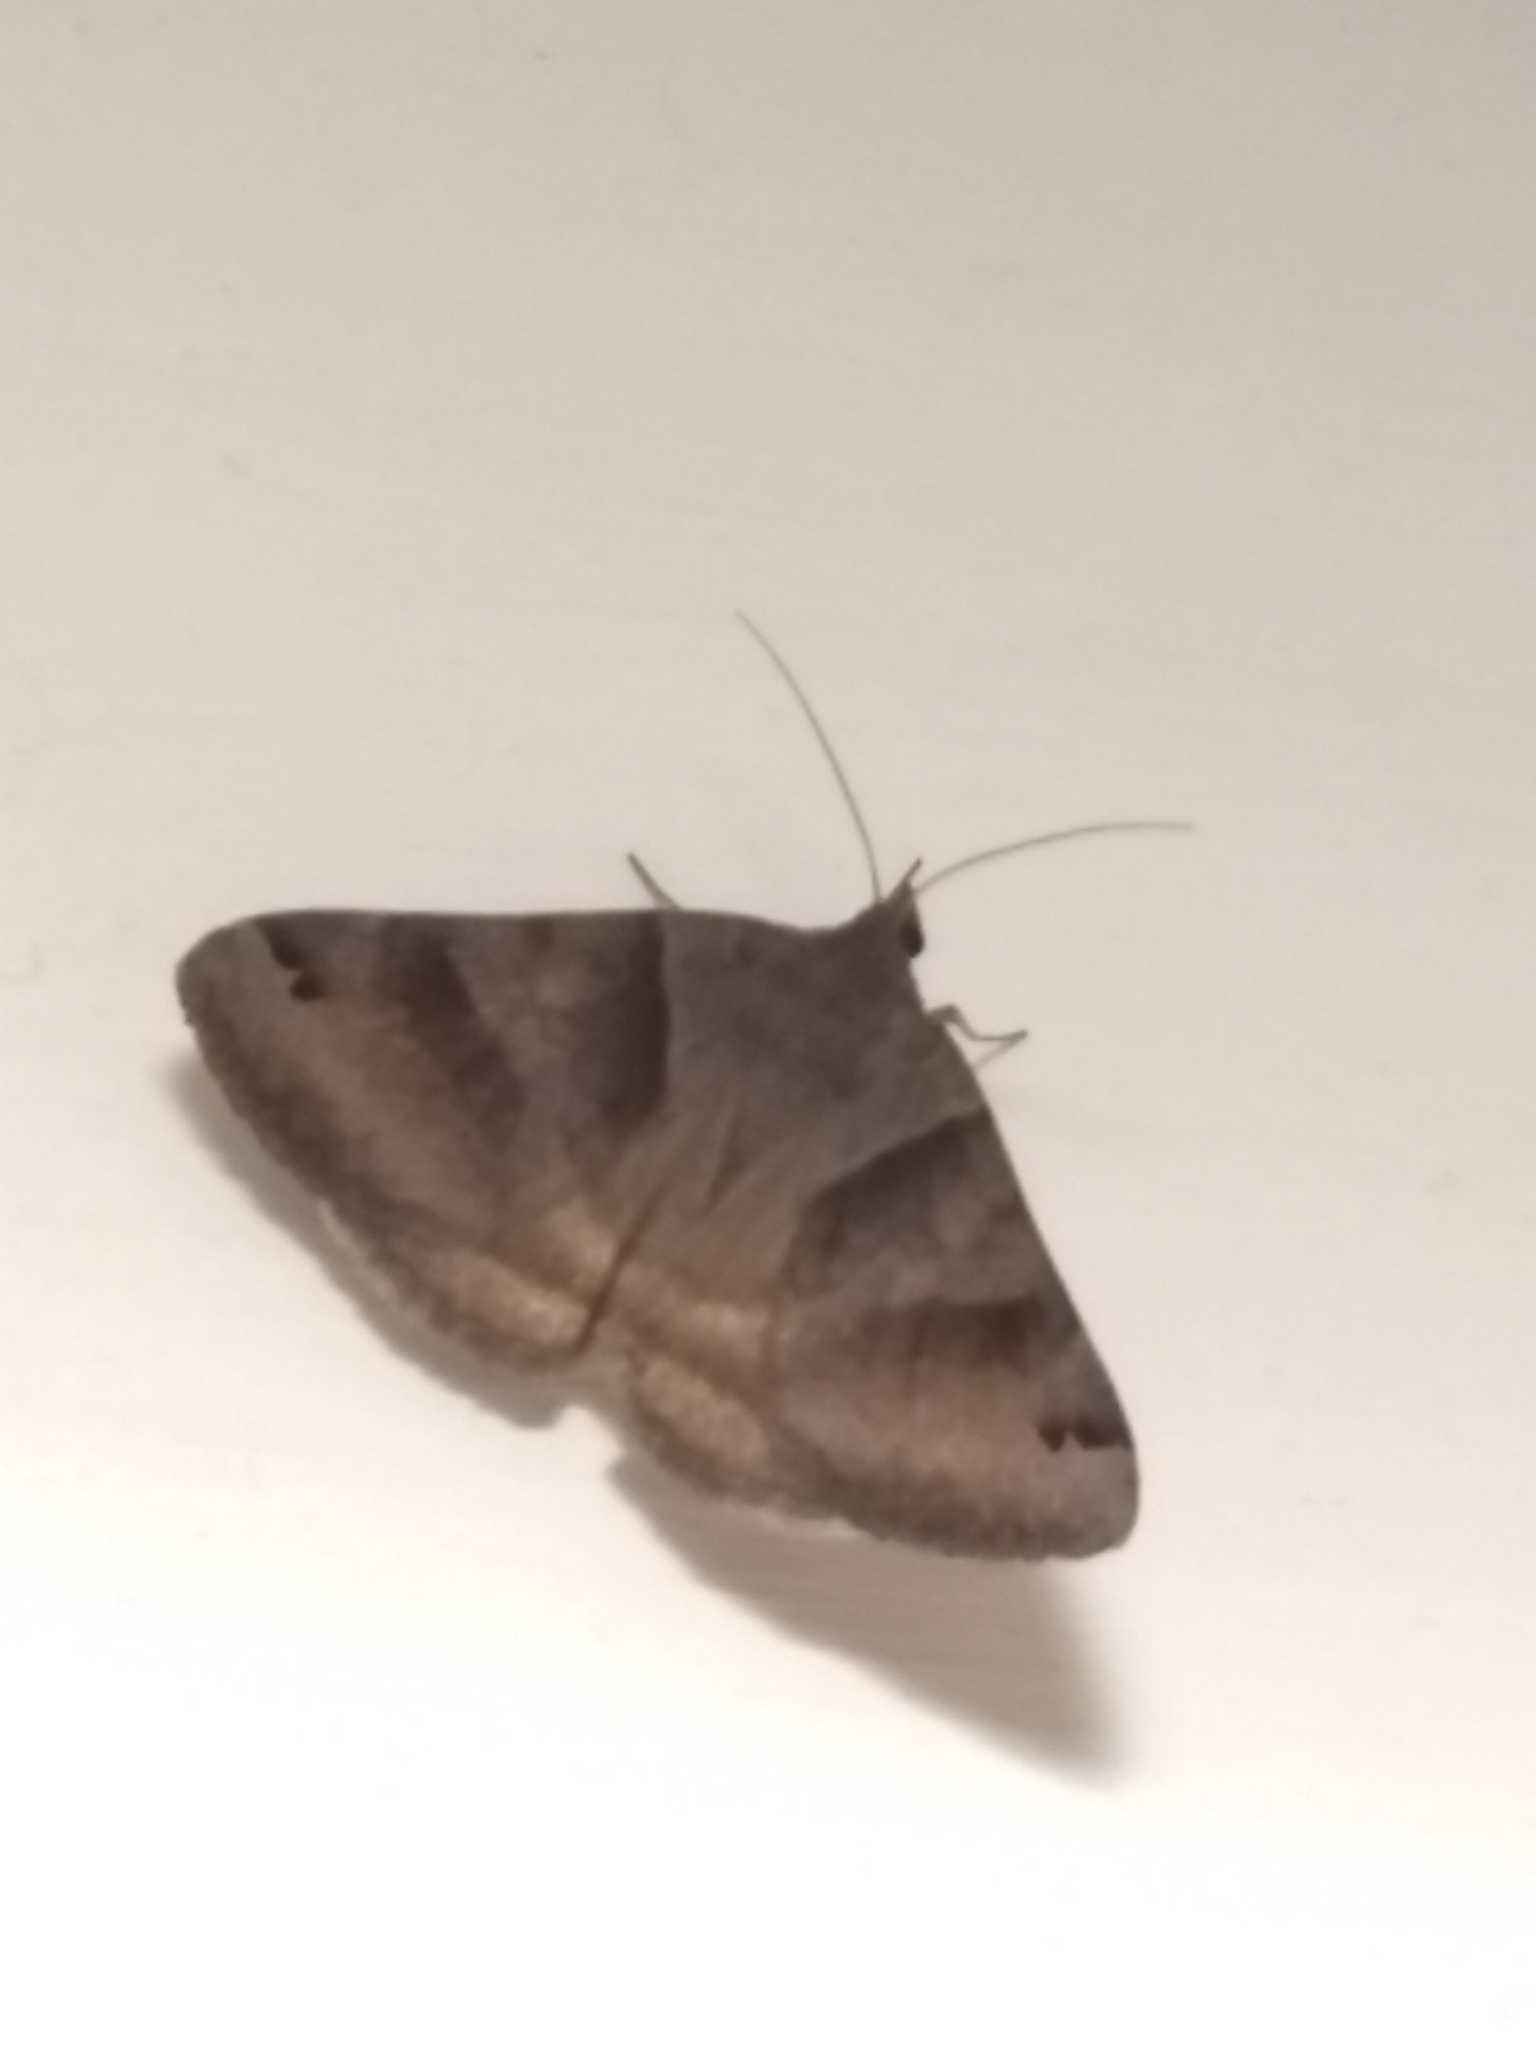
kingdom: Animalia
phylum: Arthropoda
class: Insecta
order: Lepidoptera
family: Erebidae
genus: Caenurgina
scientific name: Caenurgina crassiuscula
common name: Double-barred
